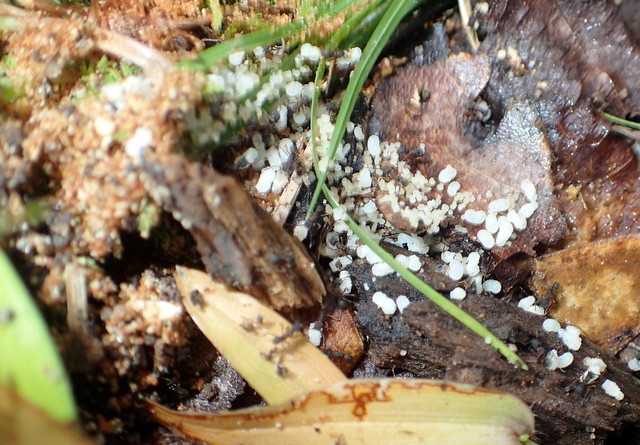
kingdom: Animalia
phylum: Arthropoda
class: Insecta
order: Hymenoptera
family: Formicidae
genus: Cyphomyrmex
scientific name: Cyphomyrmex rimosus
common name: Rimose fungus ant
